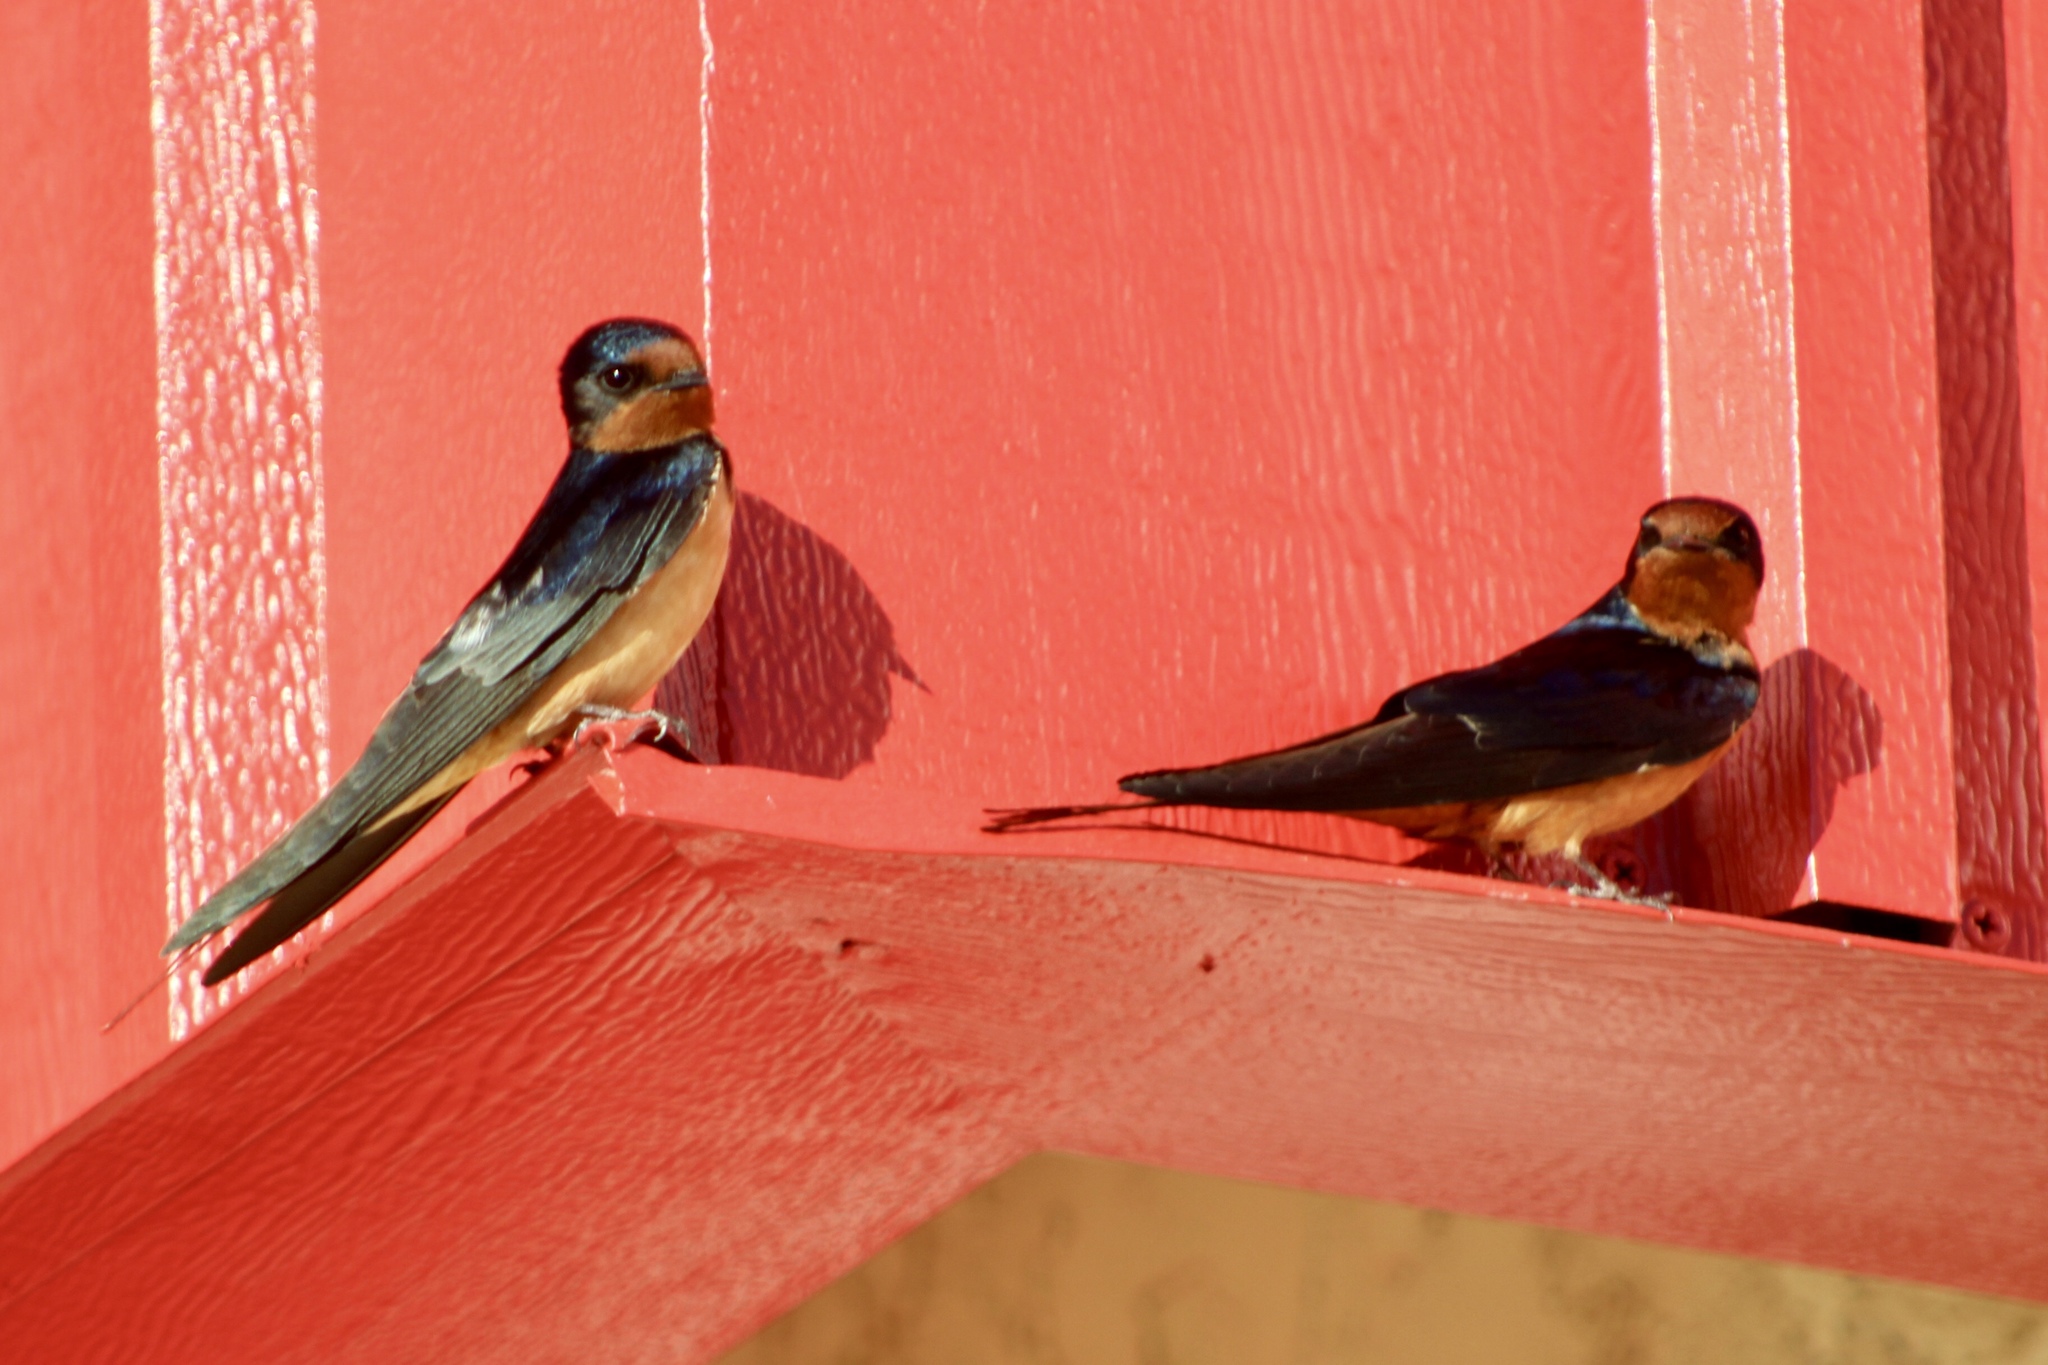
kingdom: Animalia
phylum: Chordata
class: Aves
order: Passeriformes
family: Hirundinidae
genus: Hirundo
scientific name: Hirundo rustica
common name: Barn swallow
